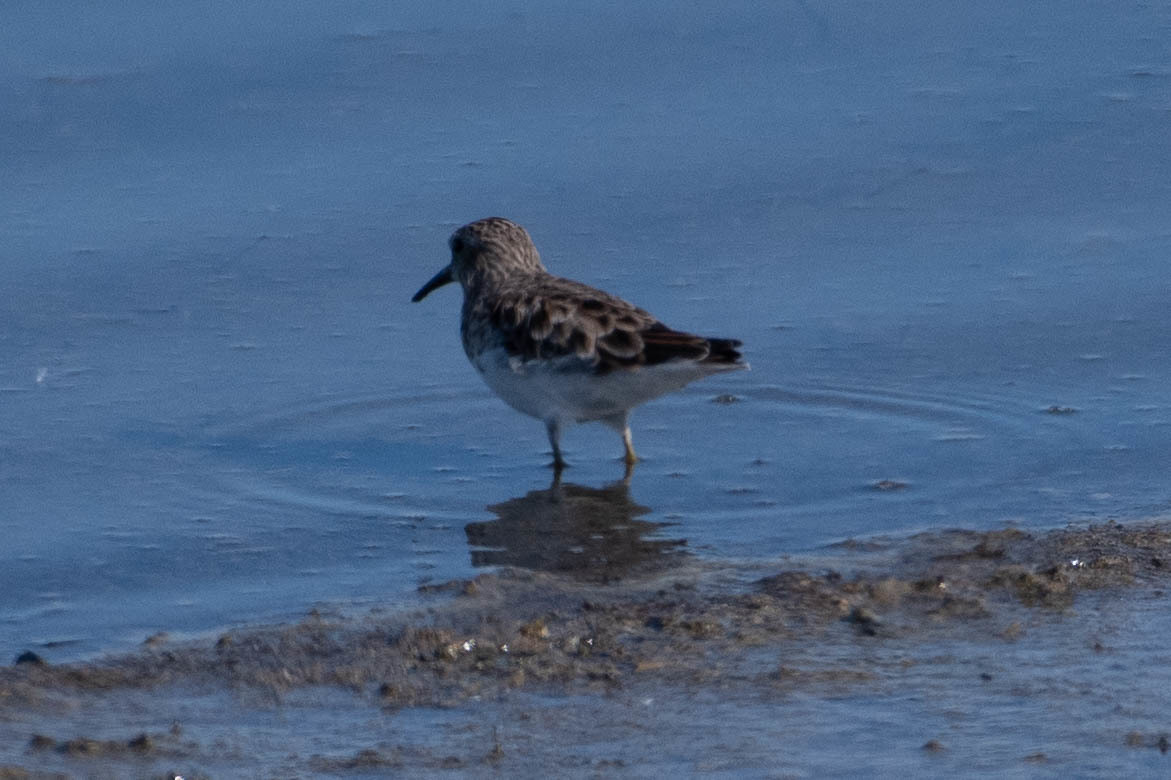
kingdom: Animalia
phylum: Chordata
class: Aves
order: Charadriiformes
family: Scolopacidae
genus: Calidris
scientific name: Calidris minutilla
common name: Least sandpiper
